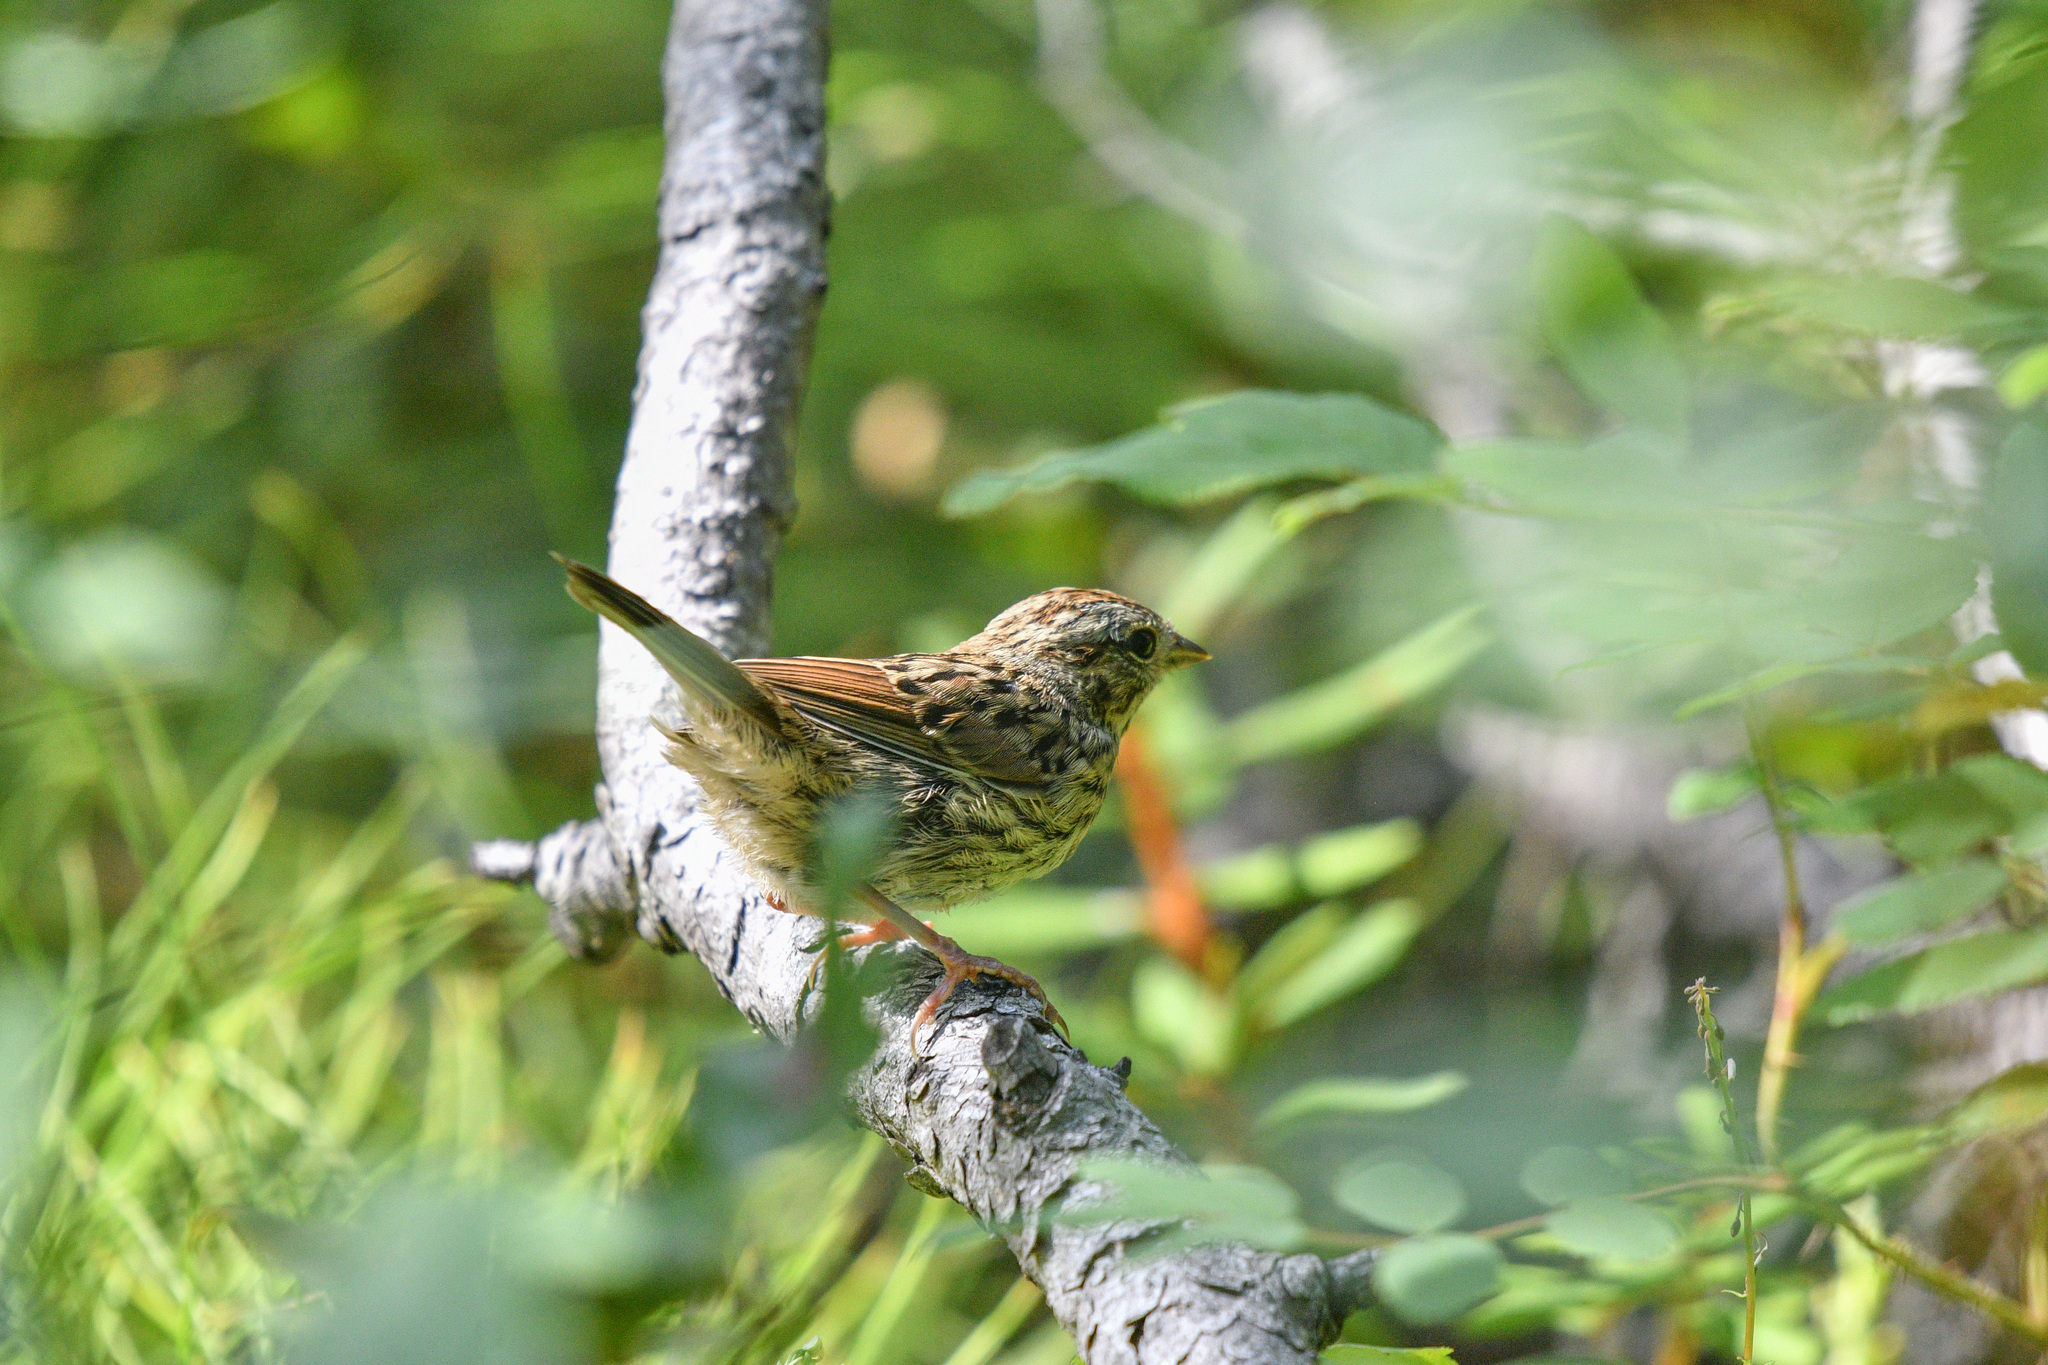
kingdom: Animalia
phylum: Chordata
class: Aves
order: Passeriformes
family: Passerellidae
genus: Melospiza
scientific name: Melospiza lincolnii
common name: Lincoln's sparrow
